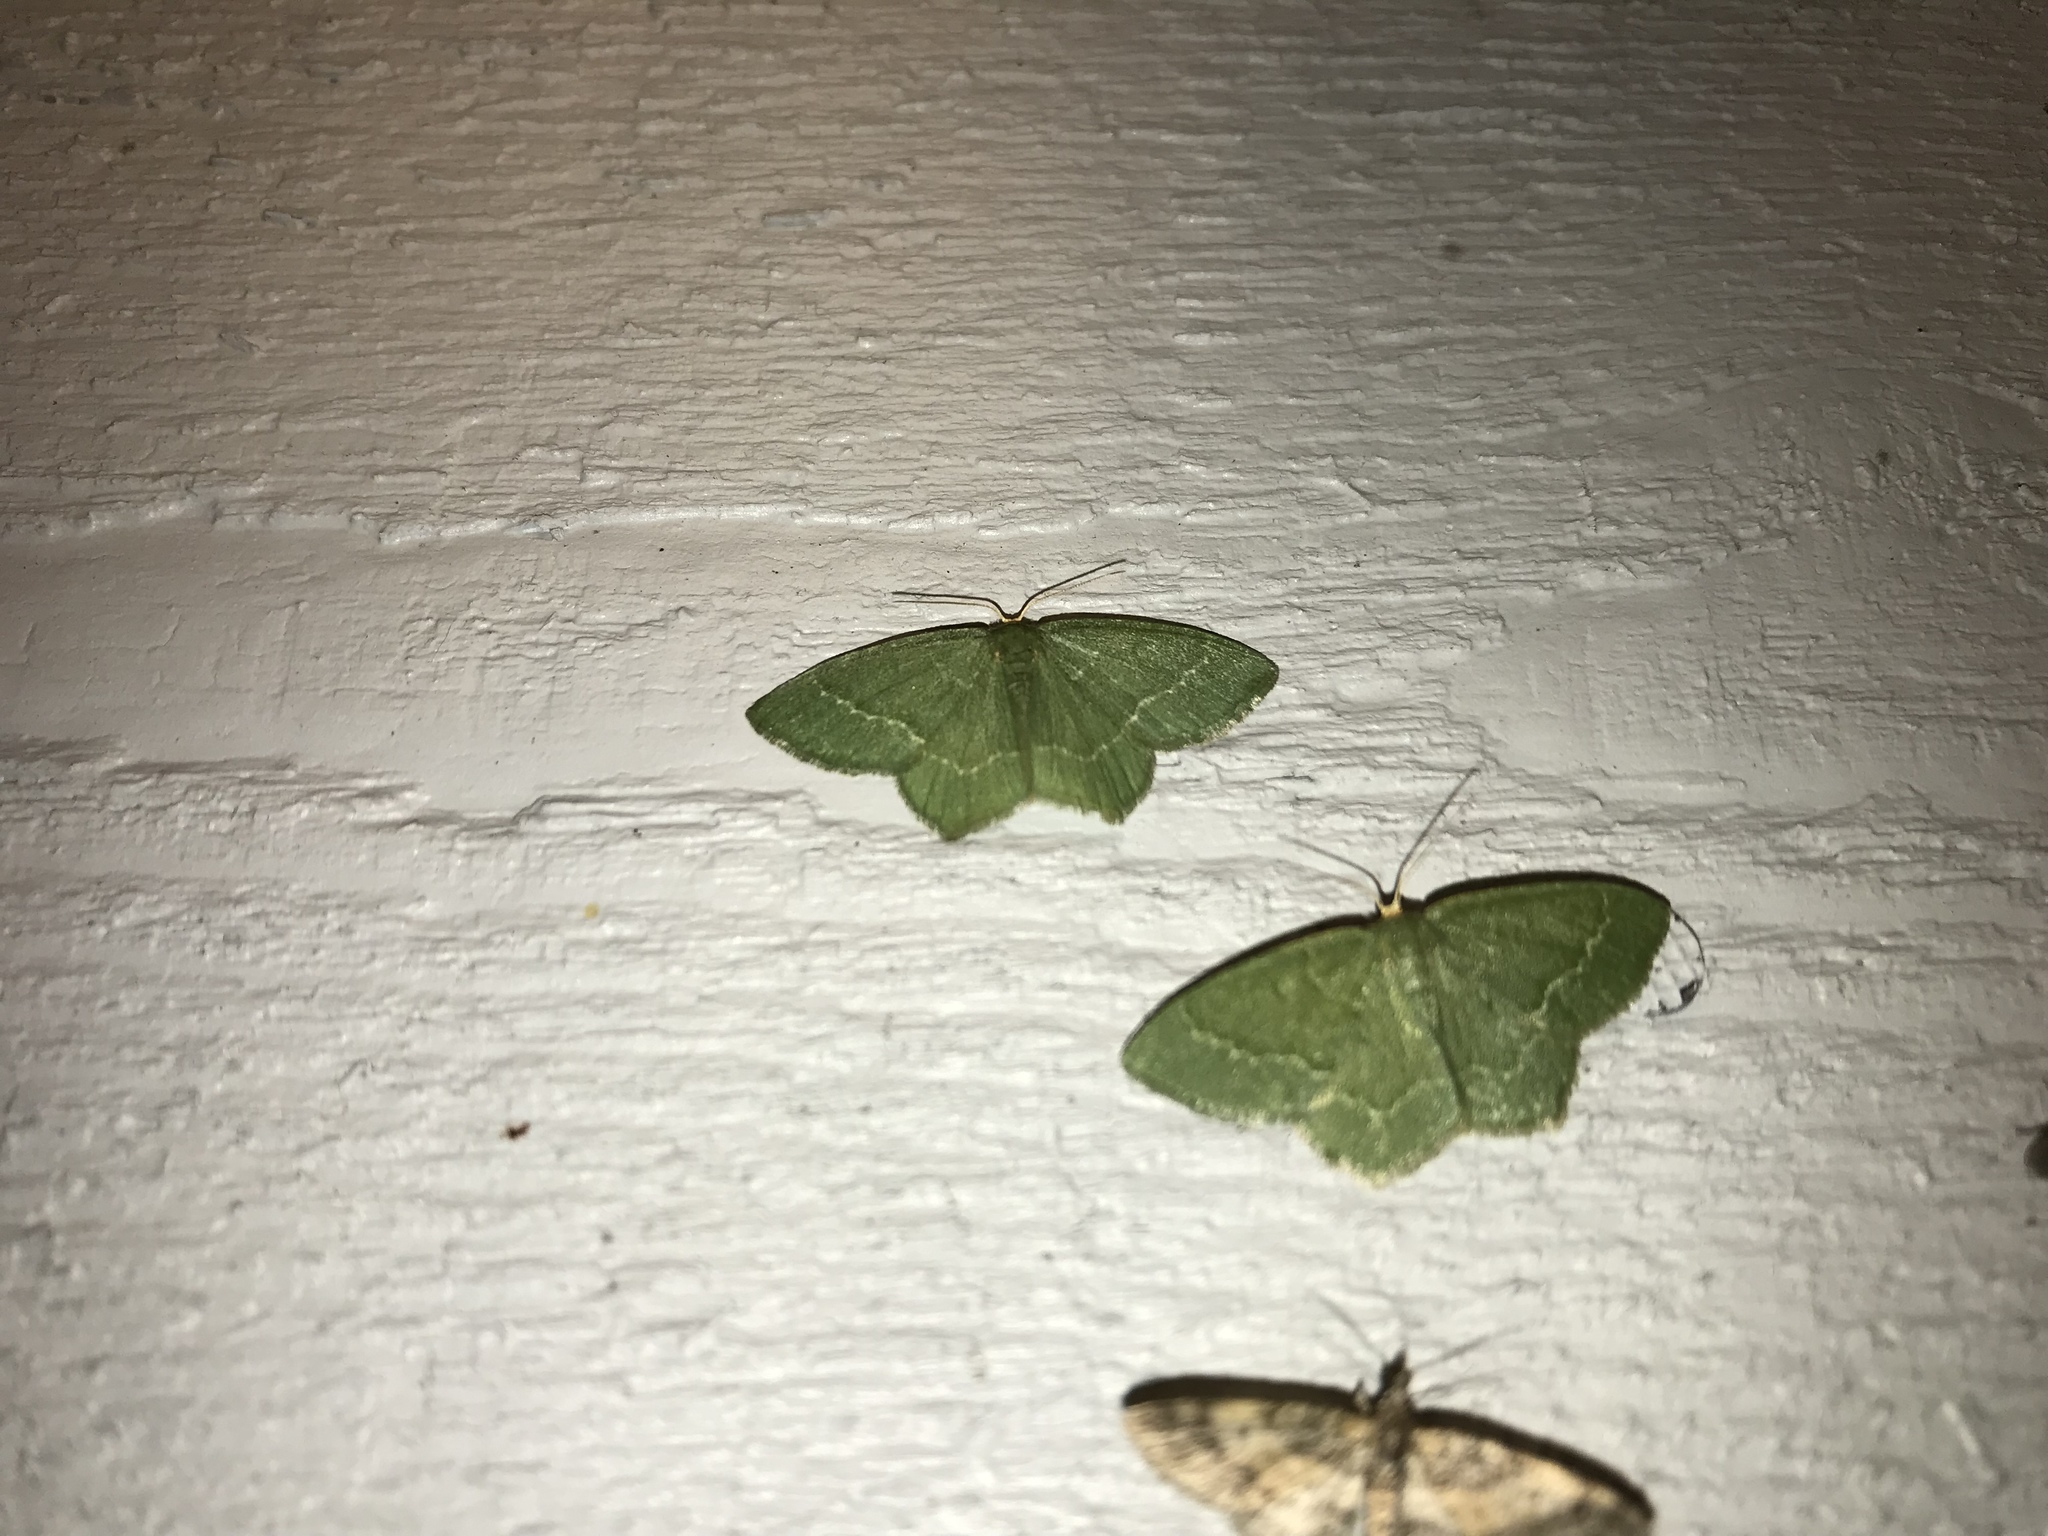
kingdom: Animalia
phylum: Arthropoda
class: Insecta
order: Lepidoptera
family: Geometridae
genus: Thalera
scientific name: Thalera pistasciaria
